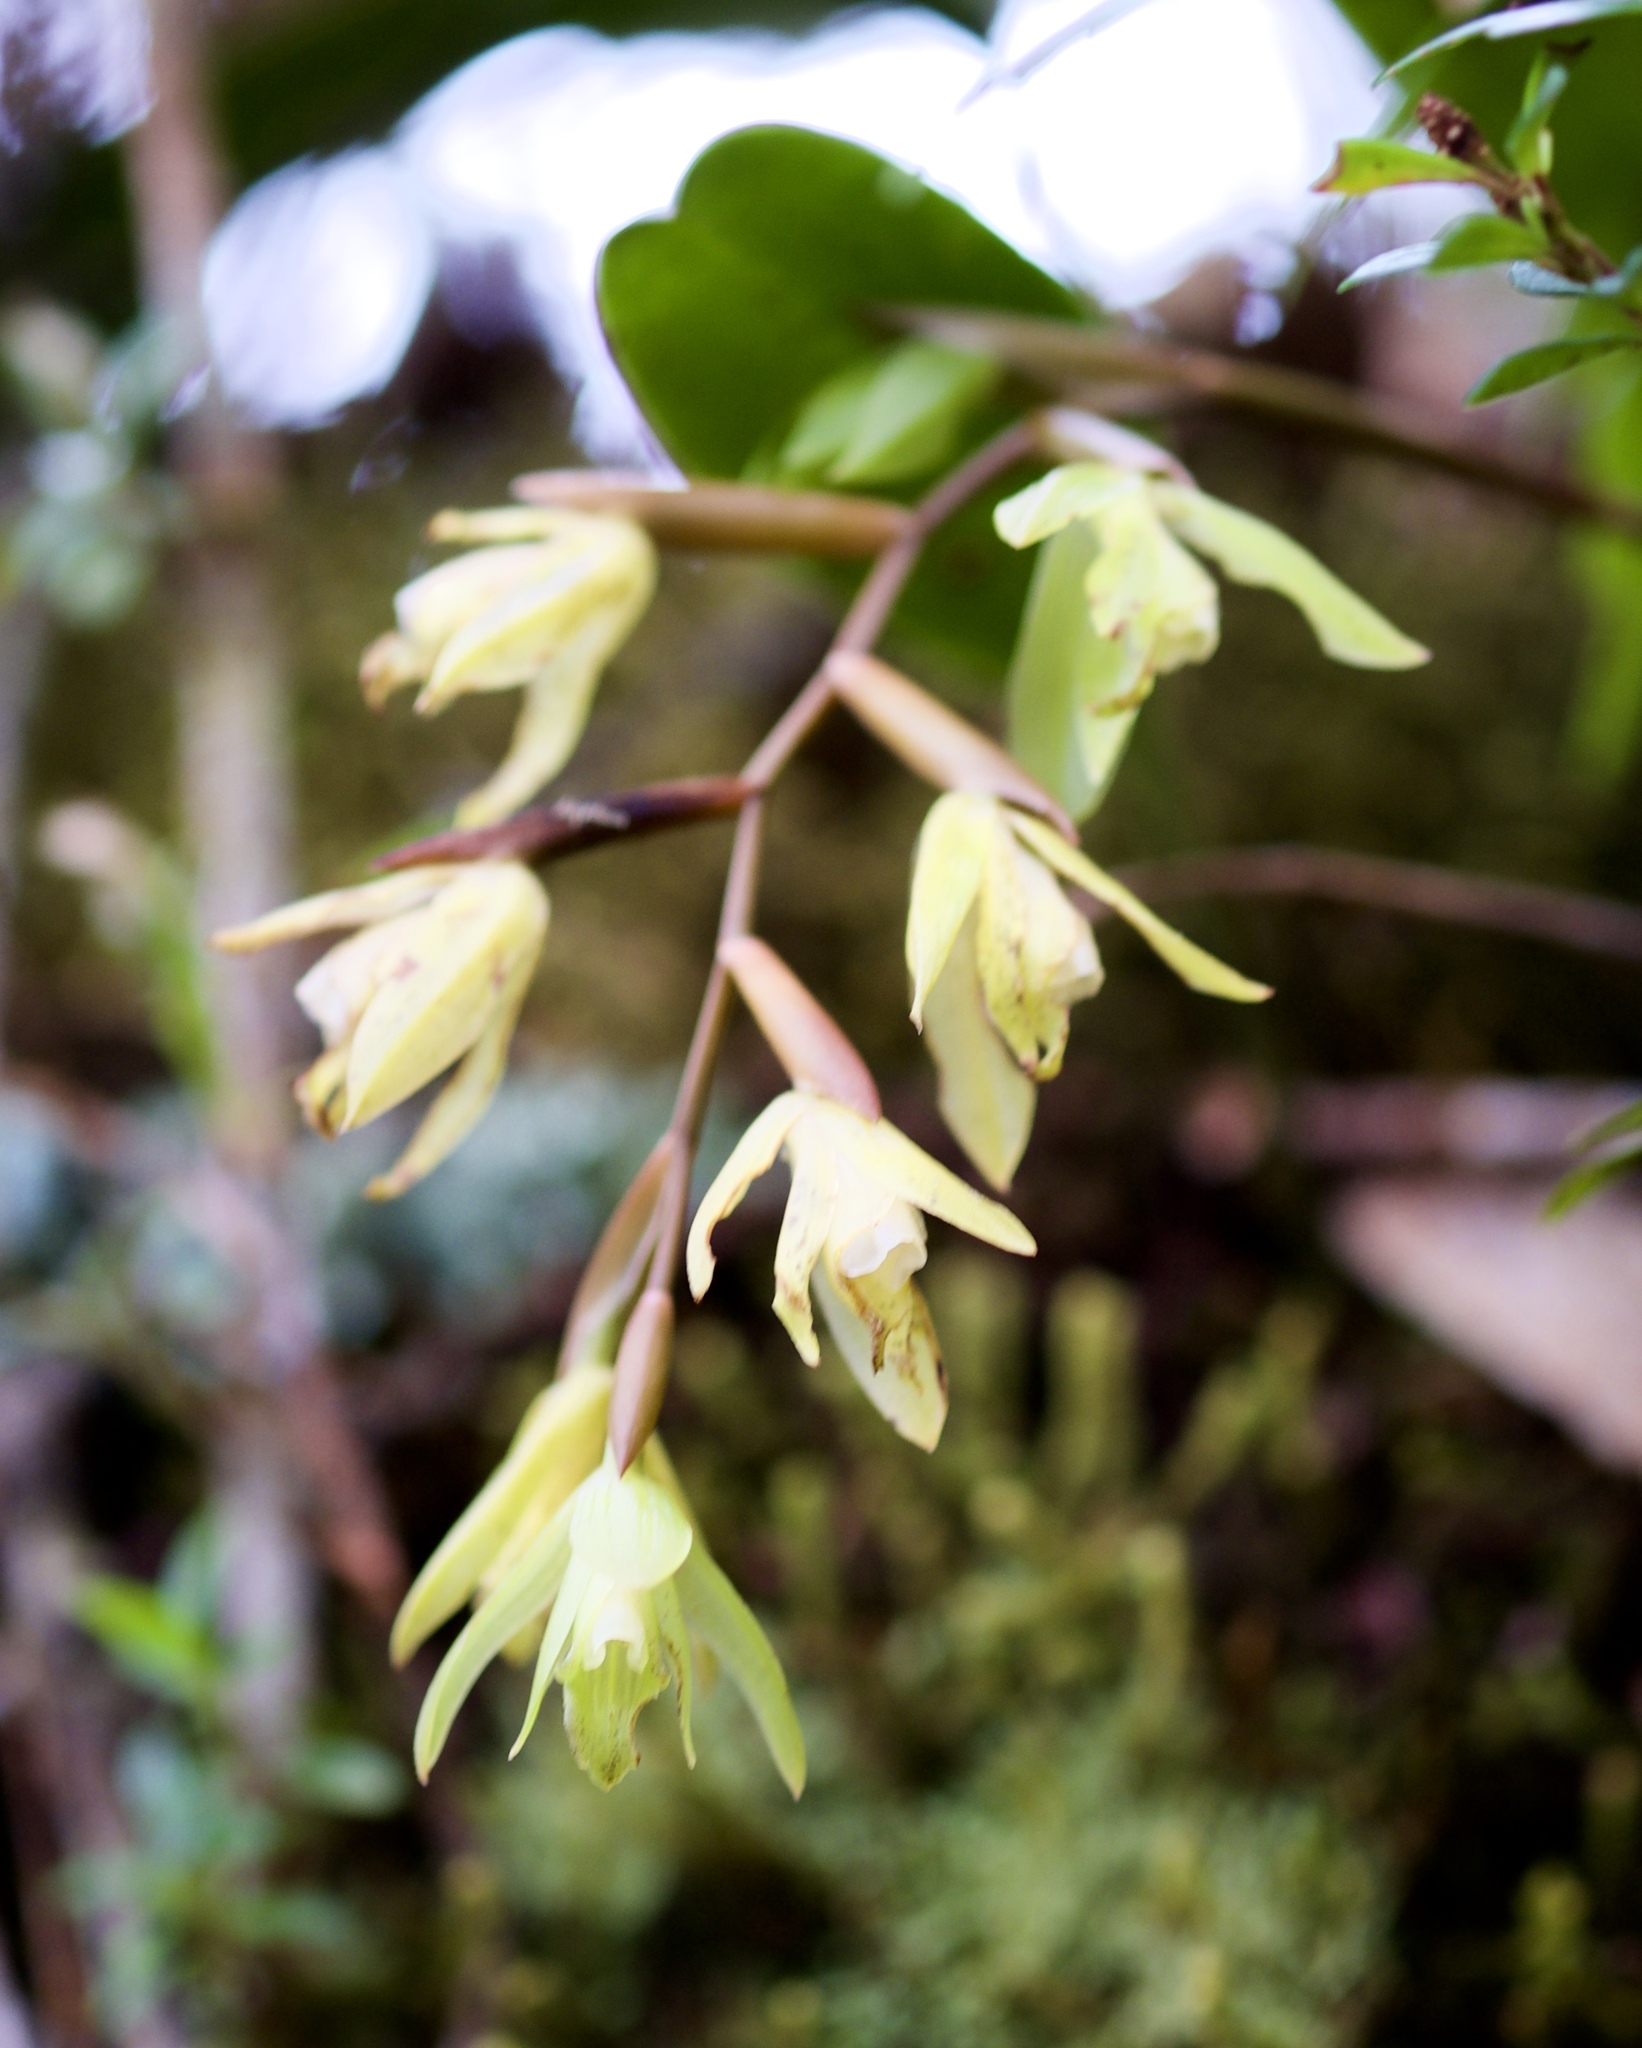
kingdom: Plantae
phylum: Tracheophyta
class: Liliopsida
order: Asparagales
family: Orchidaceae
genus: Coelogyne
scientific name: Coelogyne plicatissima
